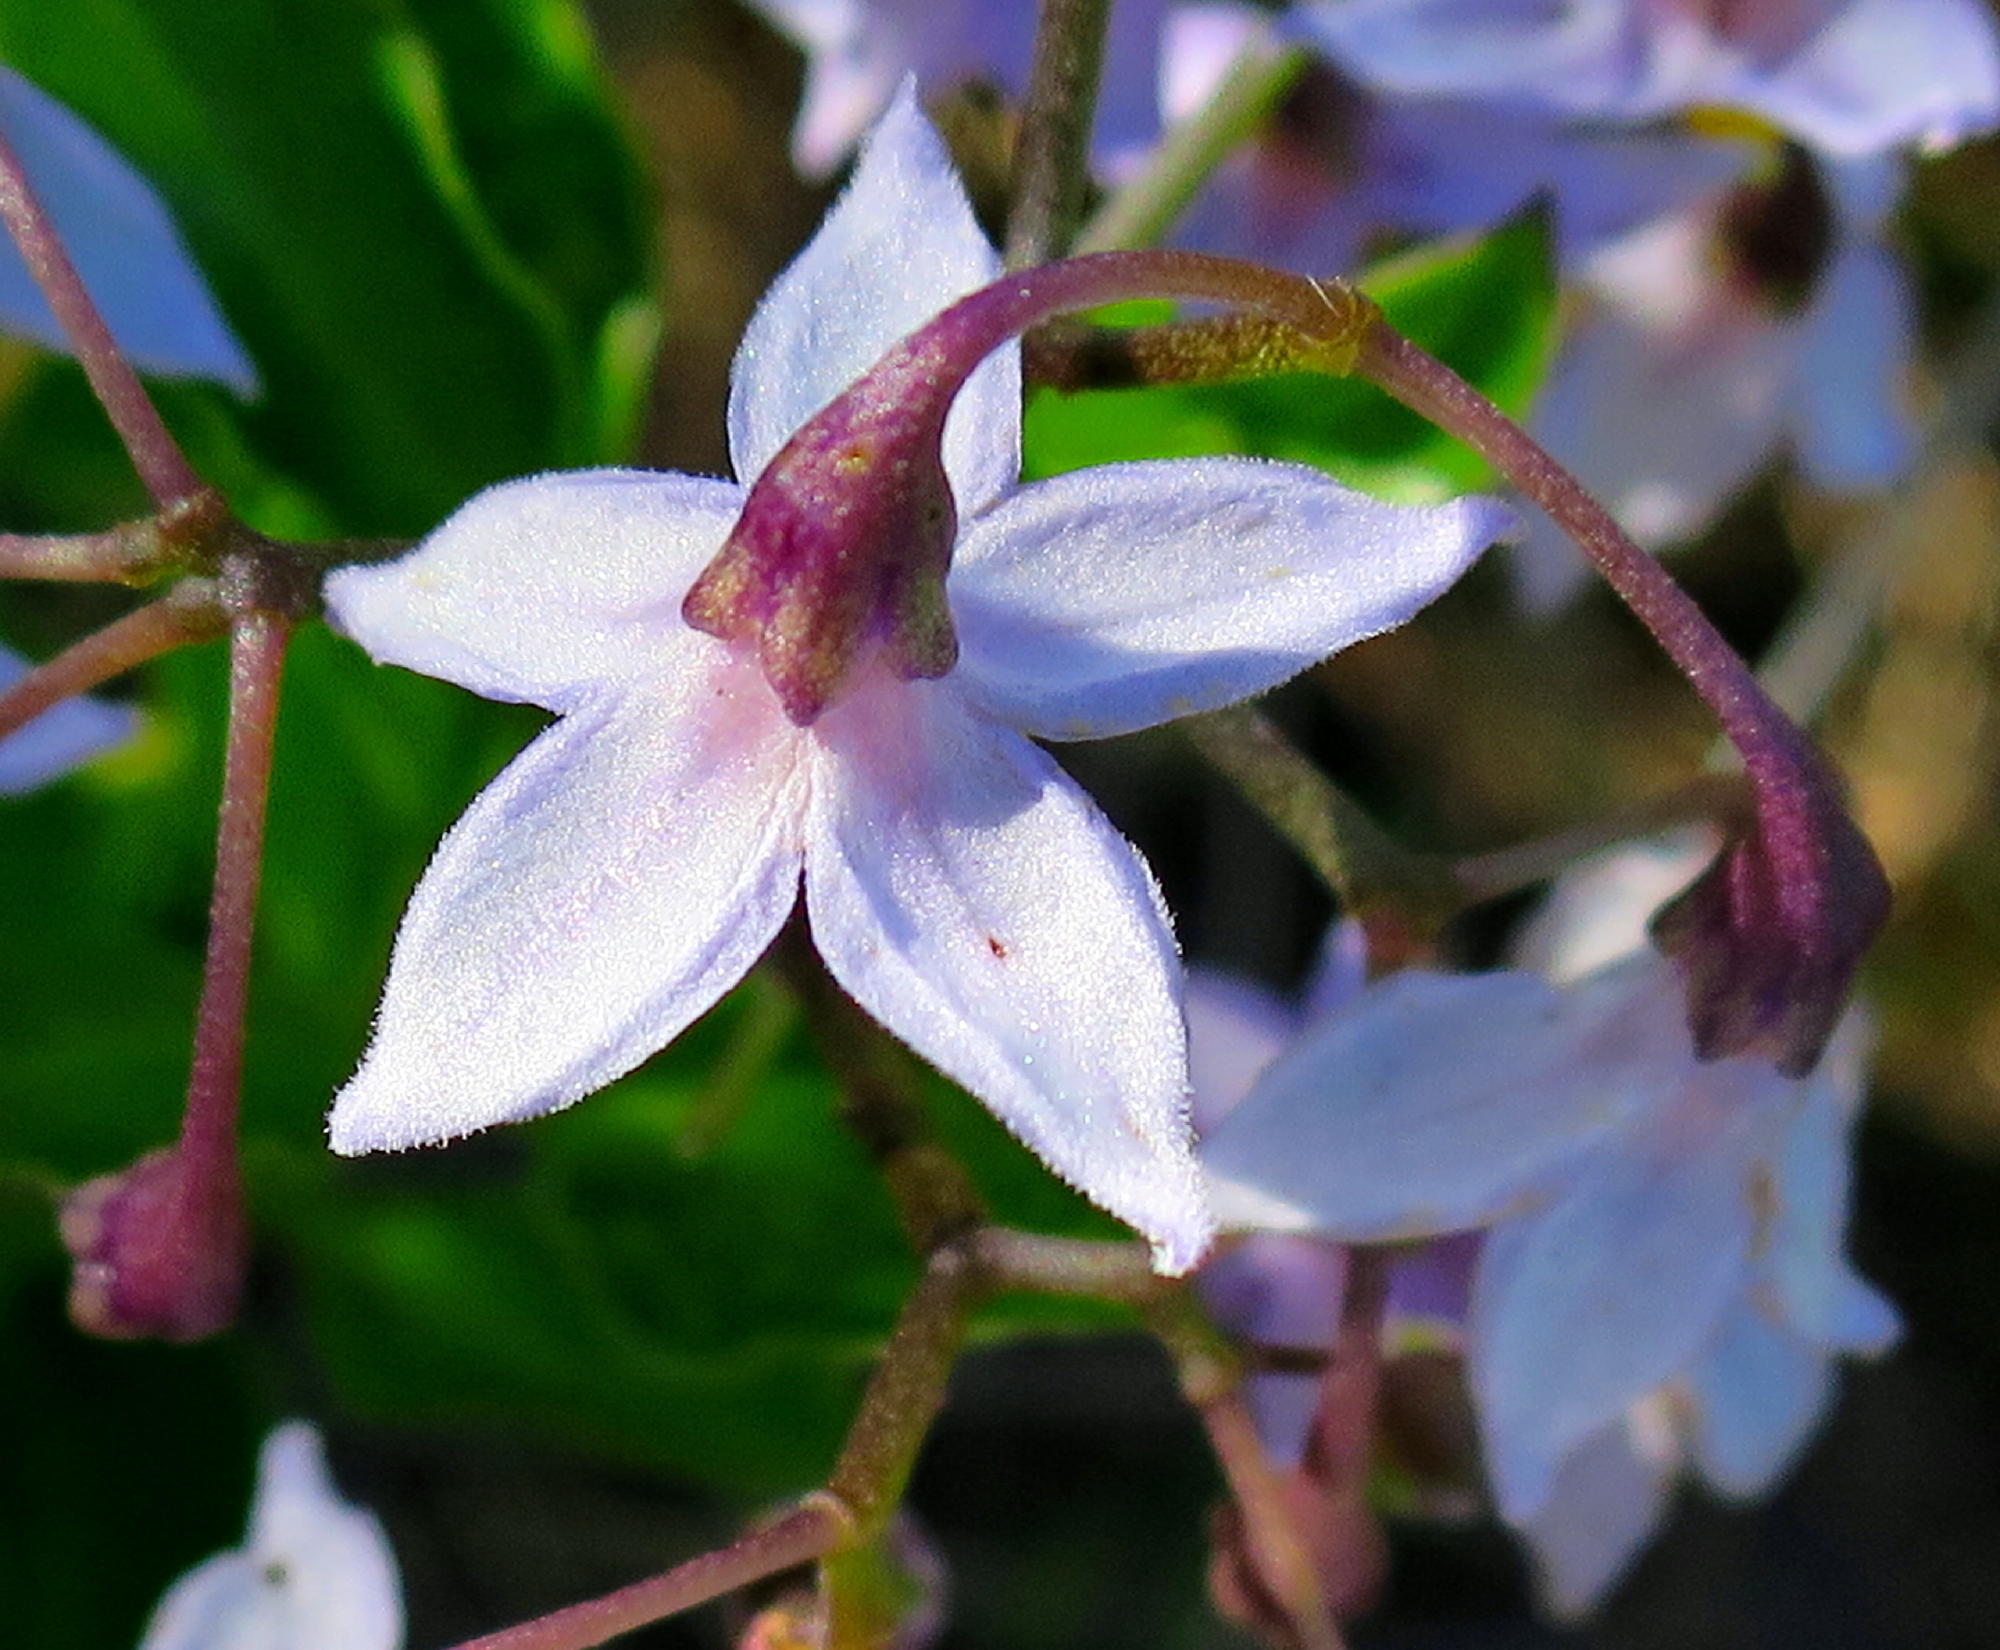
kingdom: Plantae
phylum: Tracheophyta
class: Magnoliopsida
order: Solanales
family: Solanaceae
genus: Solanum
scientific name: Solanum africanum
